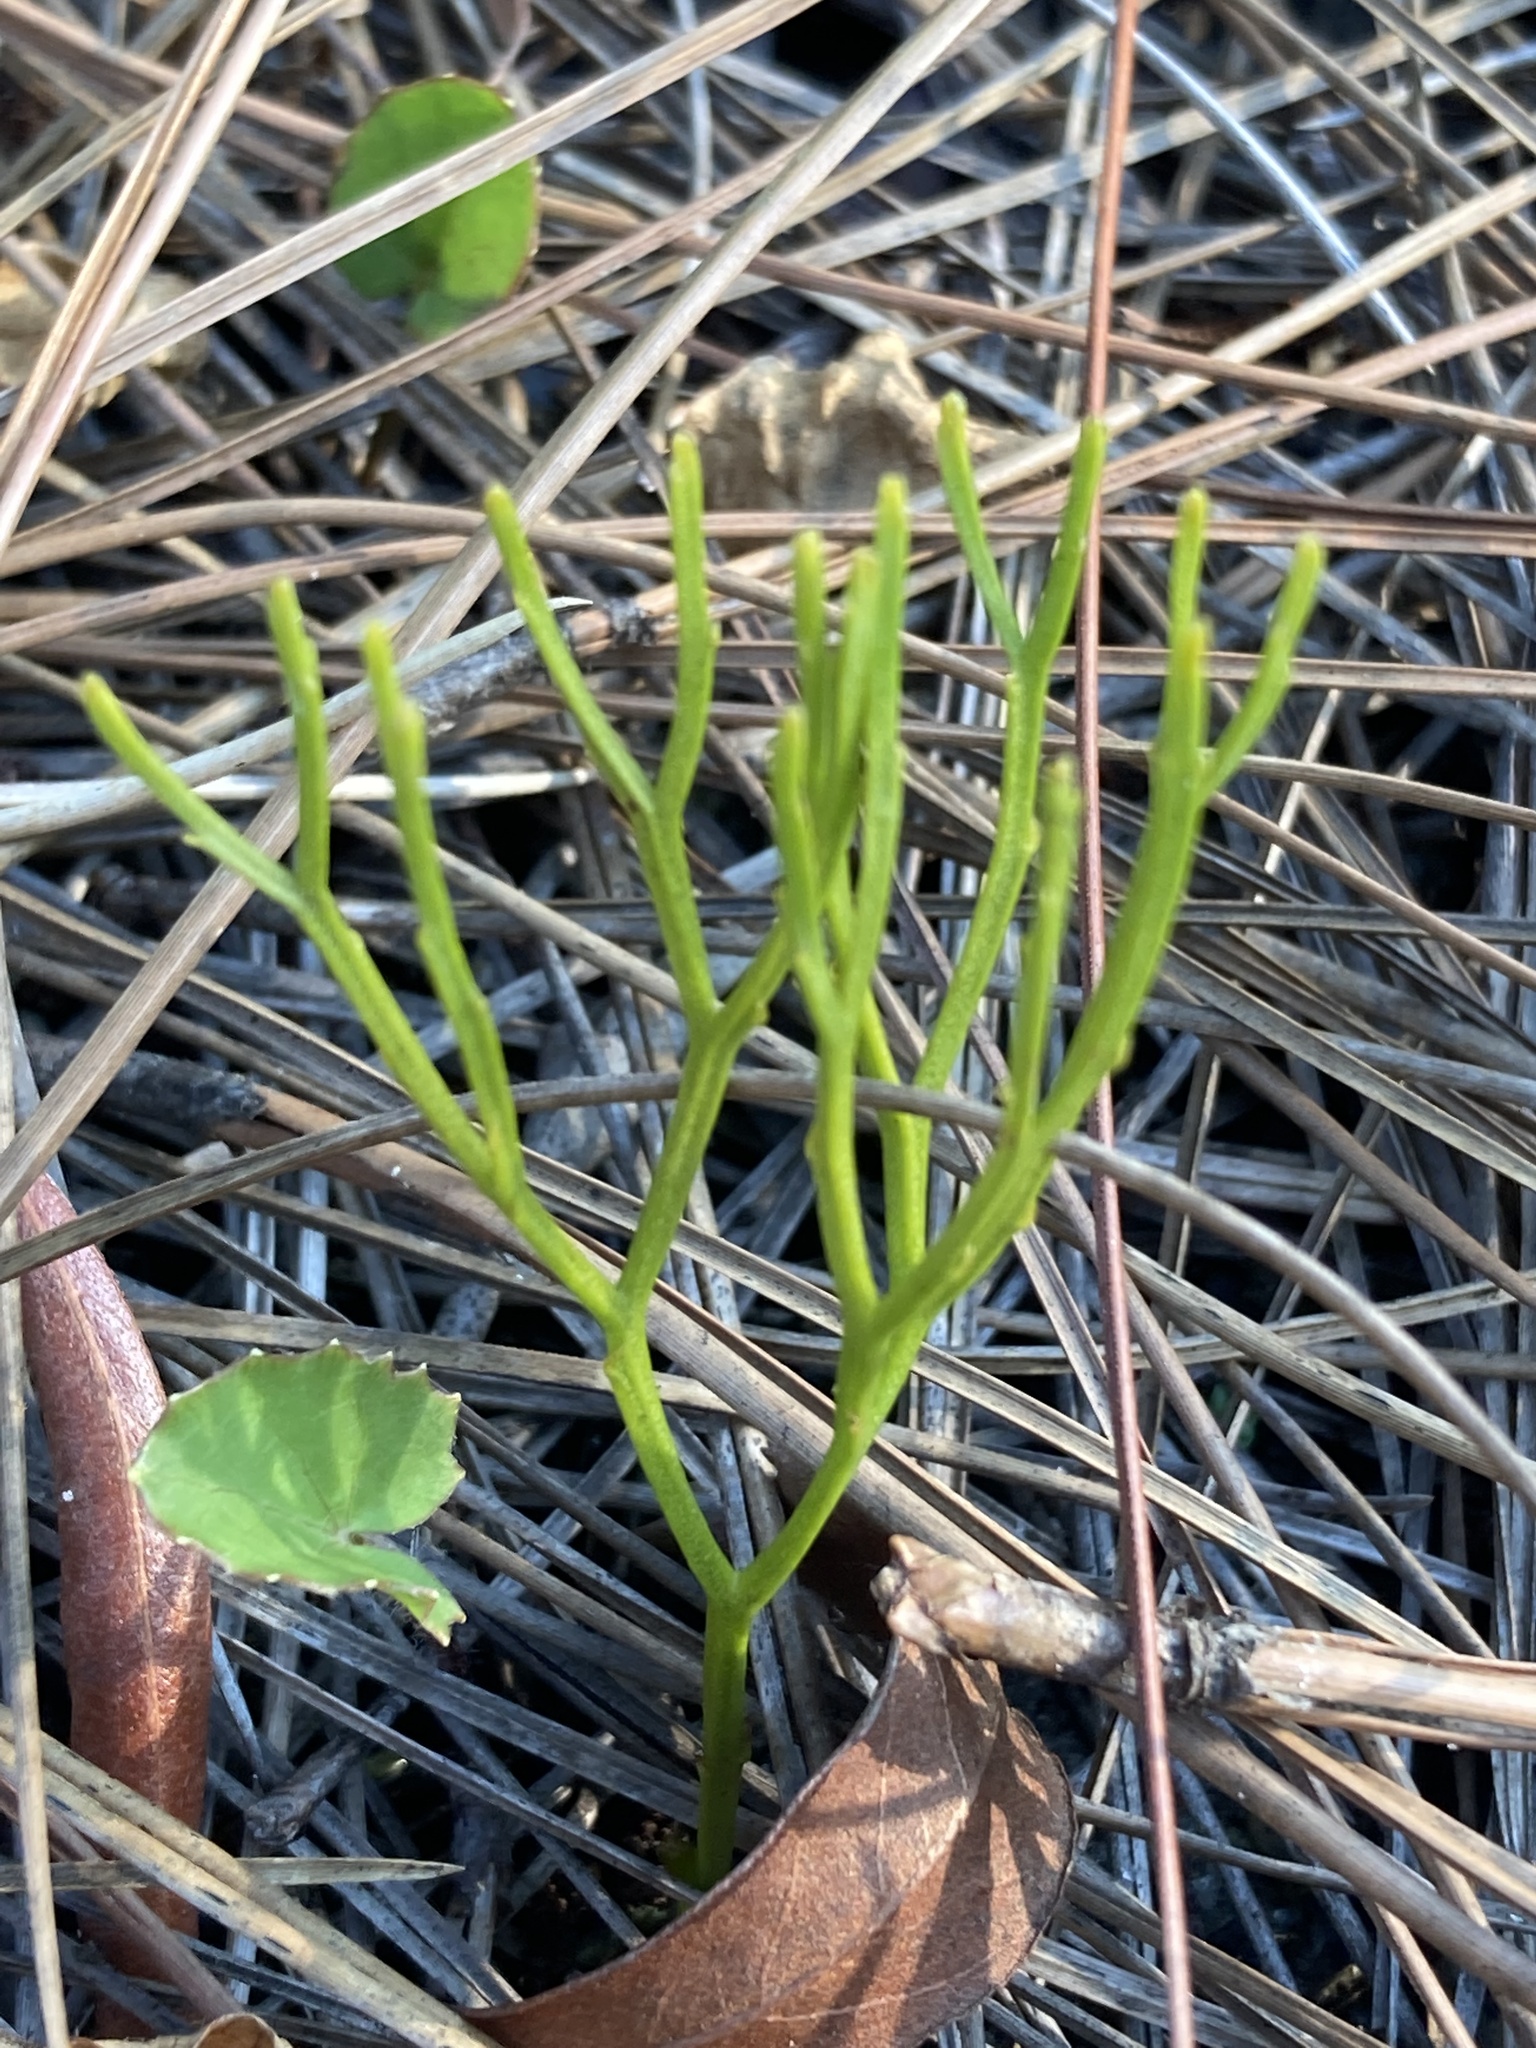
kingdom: Plantae
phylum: Tracheophyta
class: Polypodiopsida
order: Psilotales
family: Psilotaceae
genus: Psilotum
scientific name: Psilotum nudum
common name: Skeleton fork fern
